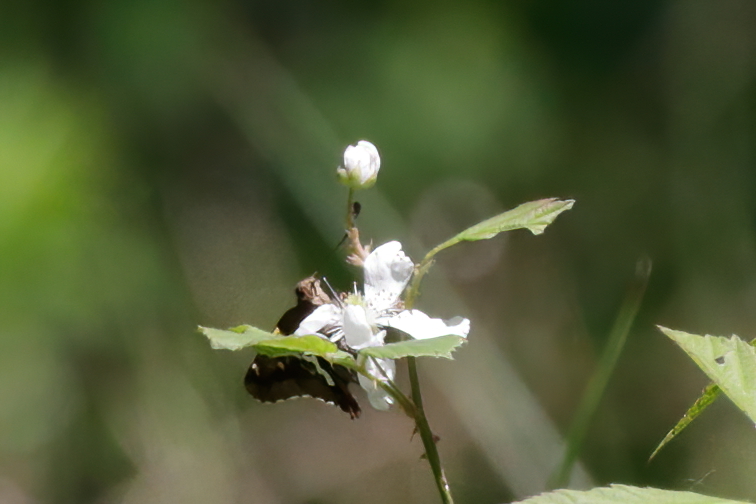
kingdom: Animalia
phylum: Arthropoda
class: Insecta
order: Lepidoptera
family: Hesperiidae
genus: Epargyreus
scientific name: Epargyreus clarus
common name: Silver-spotted skipper
